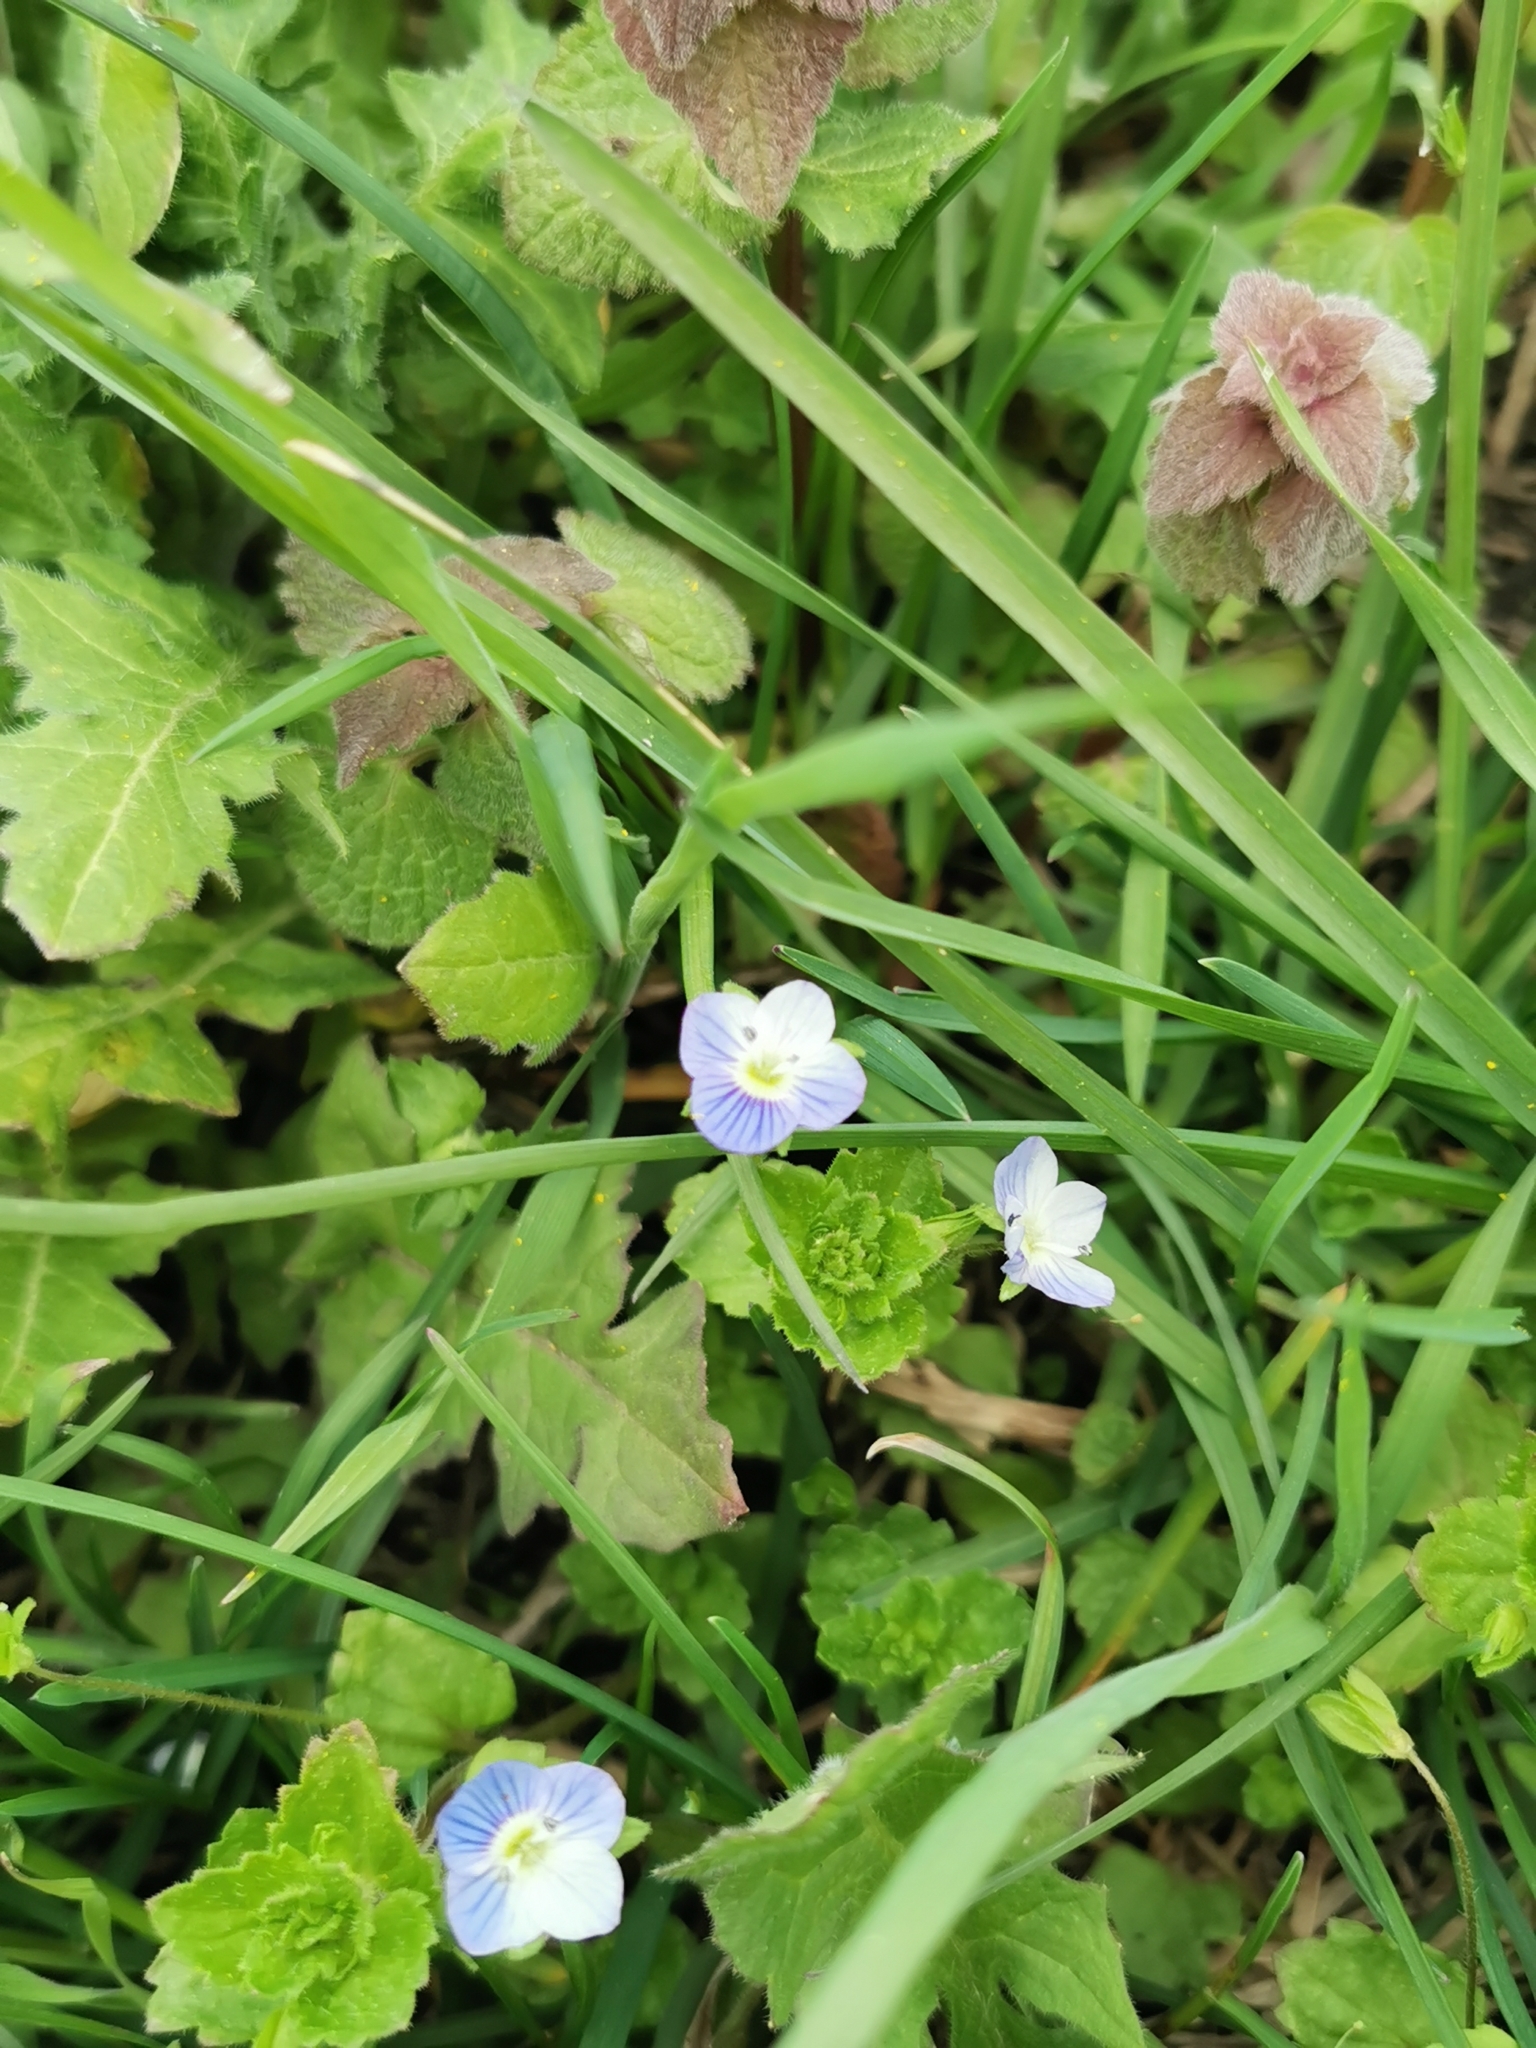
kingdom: Plantae
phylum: Tracheophyta
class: Magnoliopsida
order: Lamiales
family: Plantaginaceae
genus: Veronica
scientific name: Veronica persica
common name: Common field-speedwell
